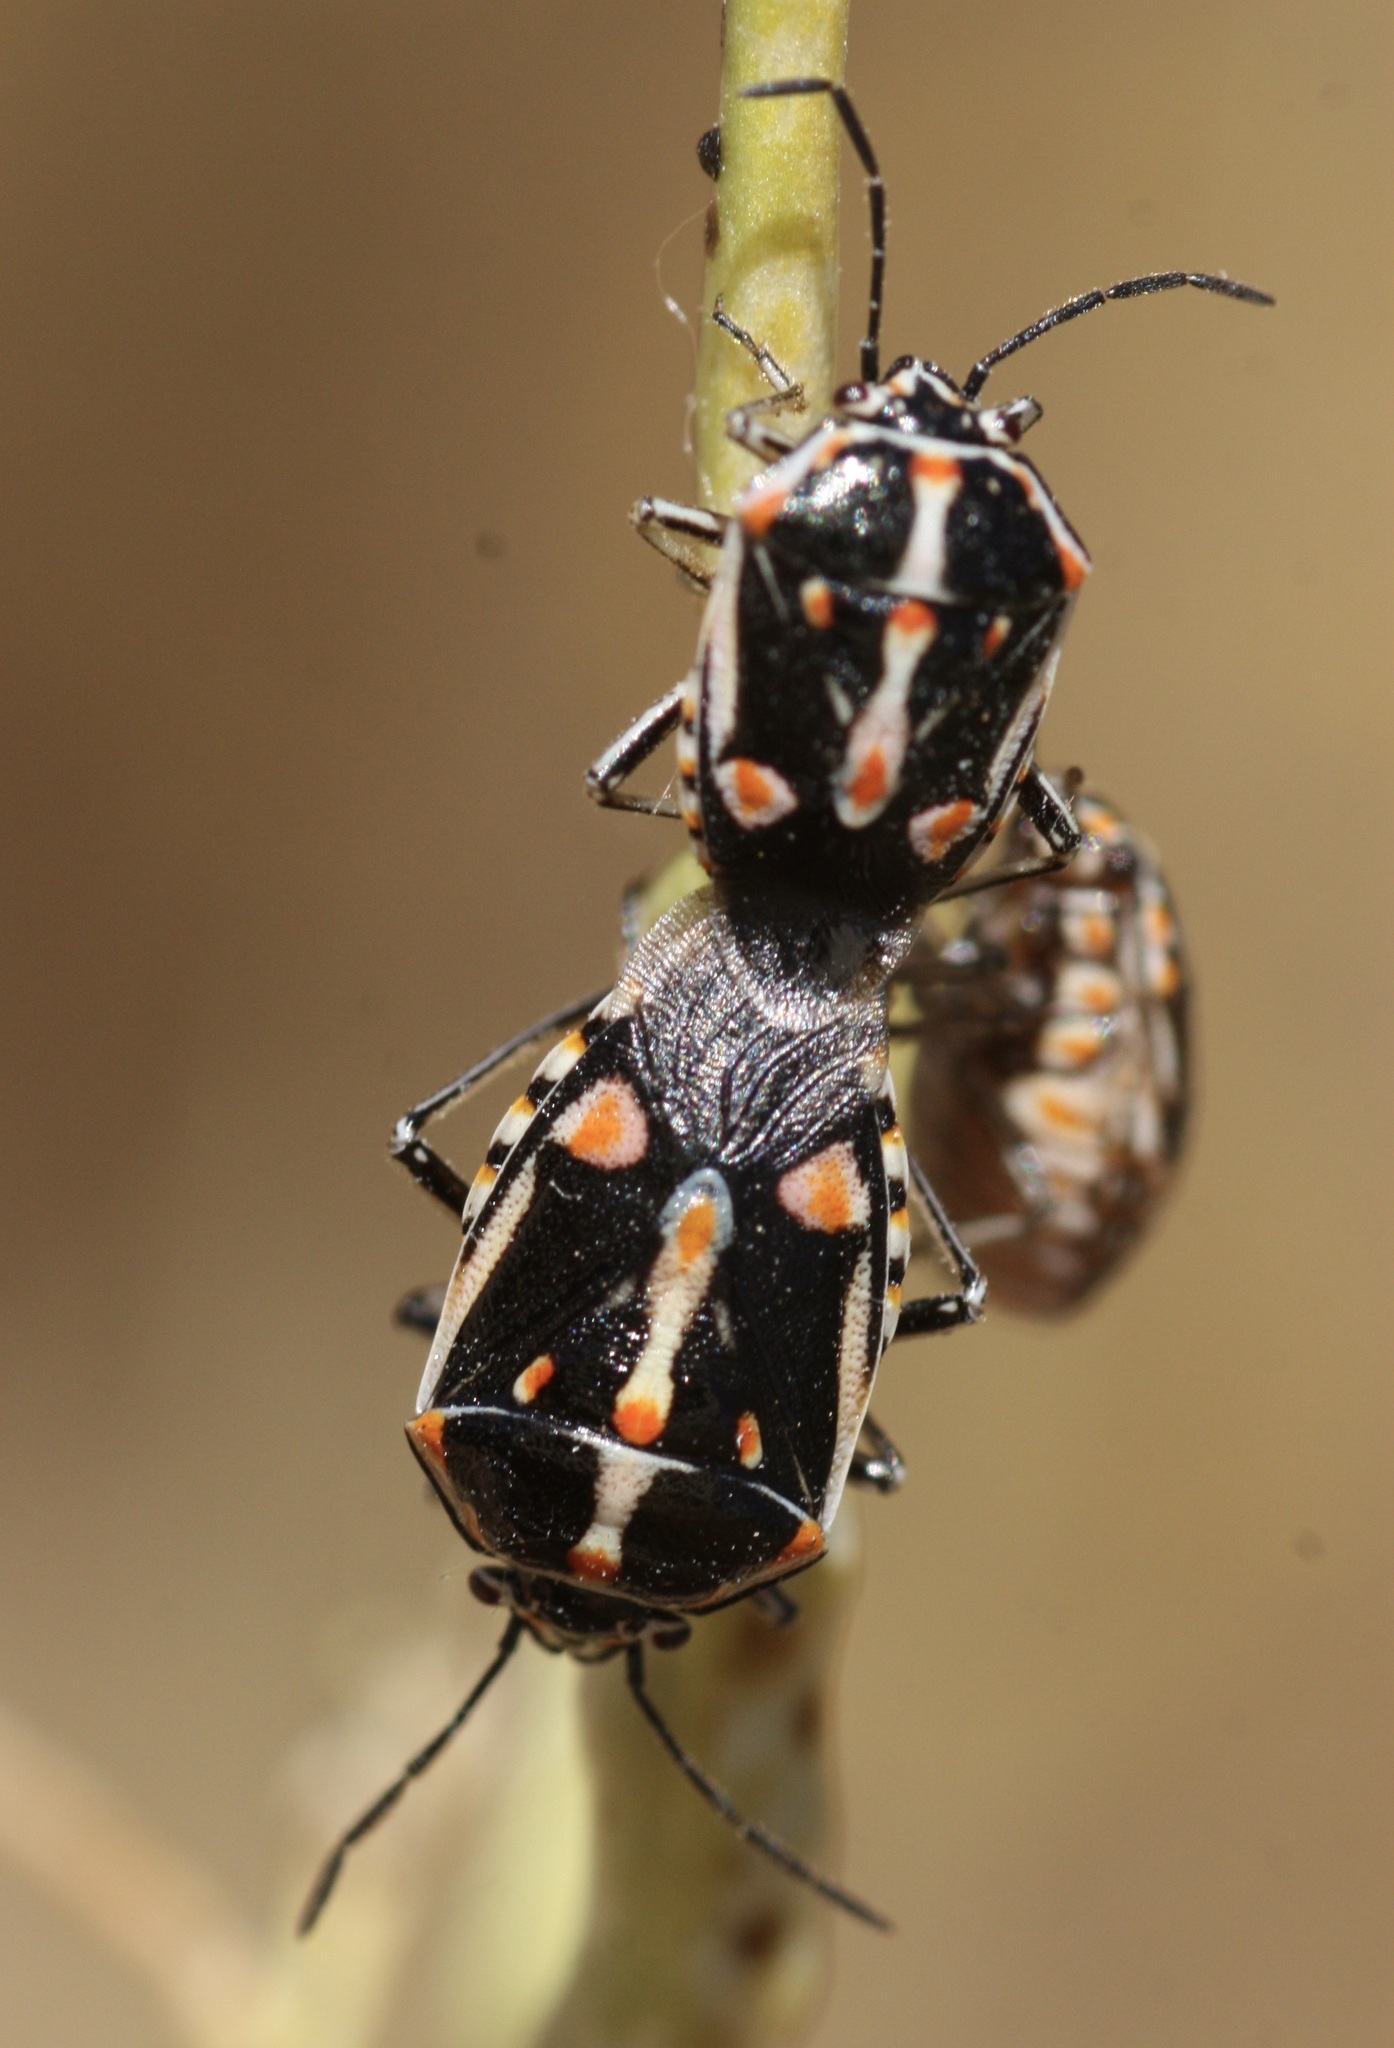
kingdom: Animalia
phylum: Arthropoda
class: Insecta
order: Hemiptera
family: Pentatomidae
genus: Bagrada
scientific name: Bagrada hilaris
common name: Bagrada bug
